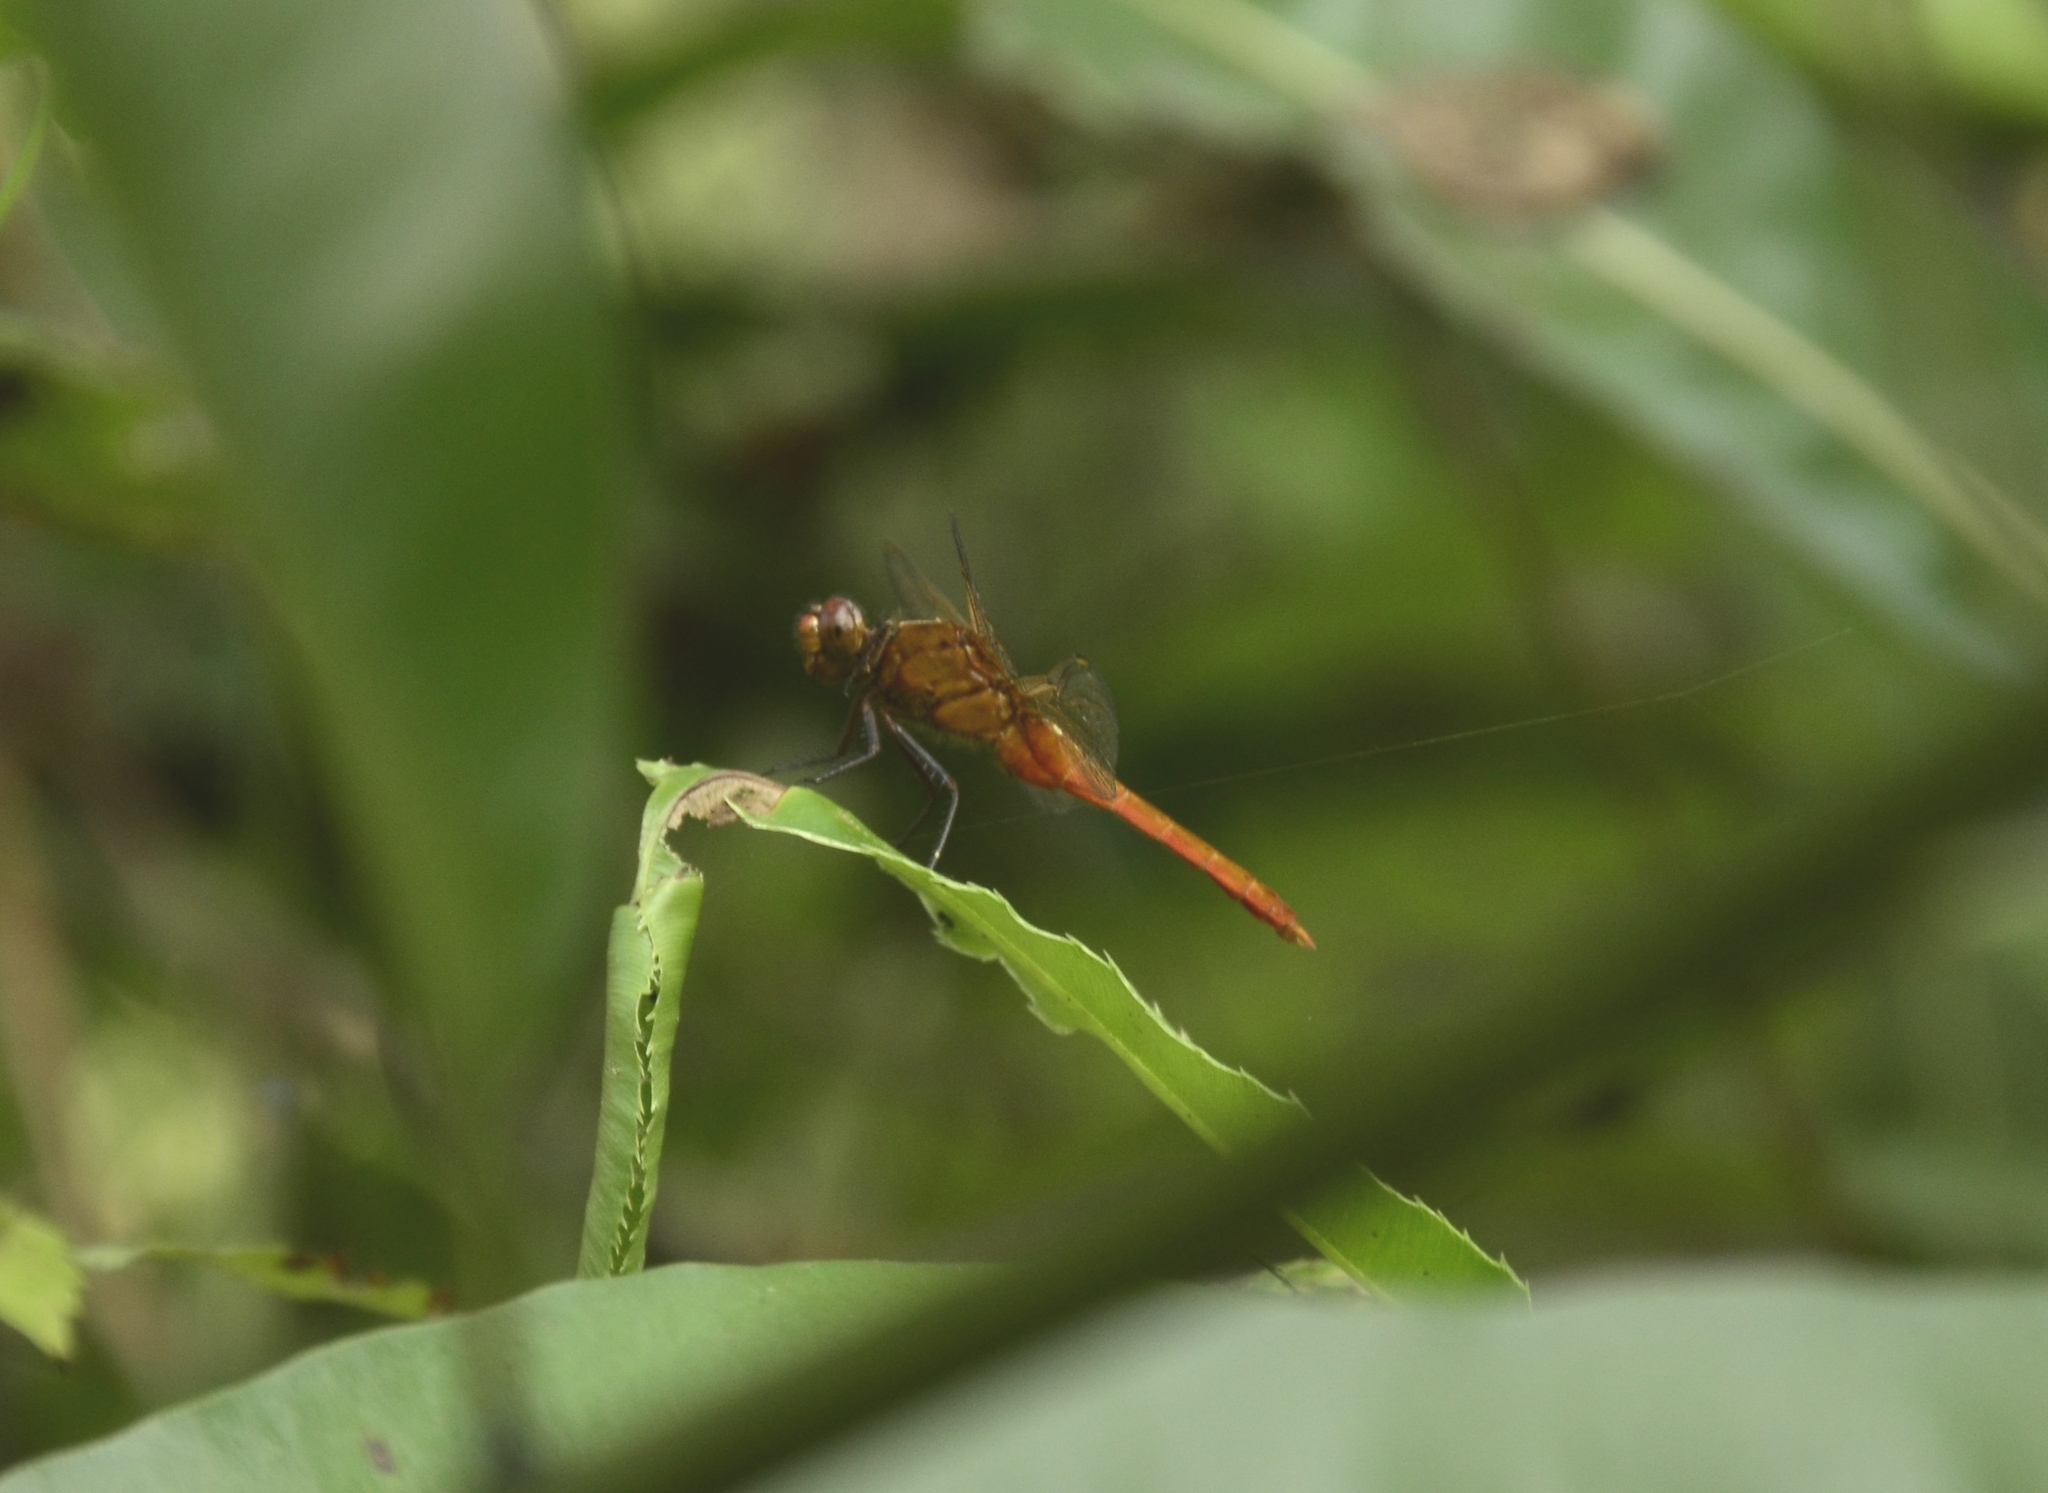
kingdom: Animalia
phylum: Arthropoda
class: Insecta
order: Odonata
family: Libellulidae
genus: Rhodothemis
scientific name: Rhodothemis rufa
